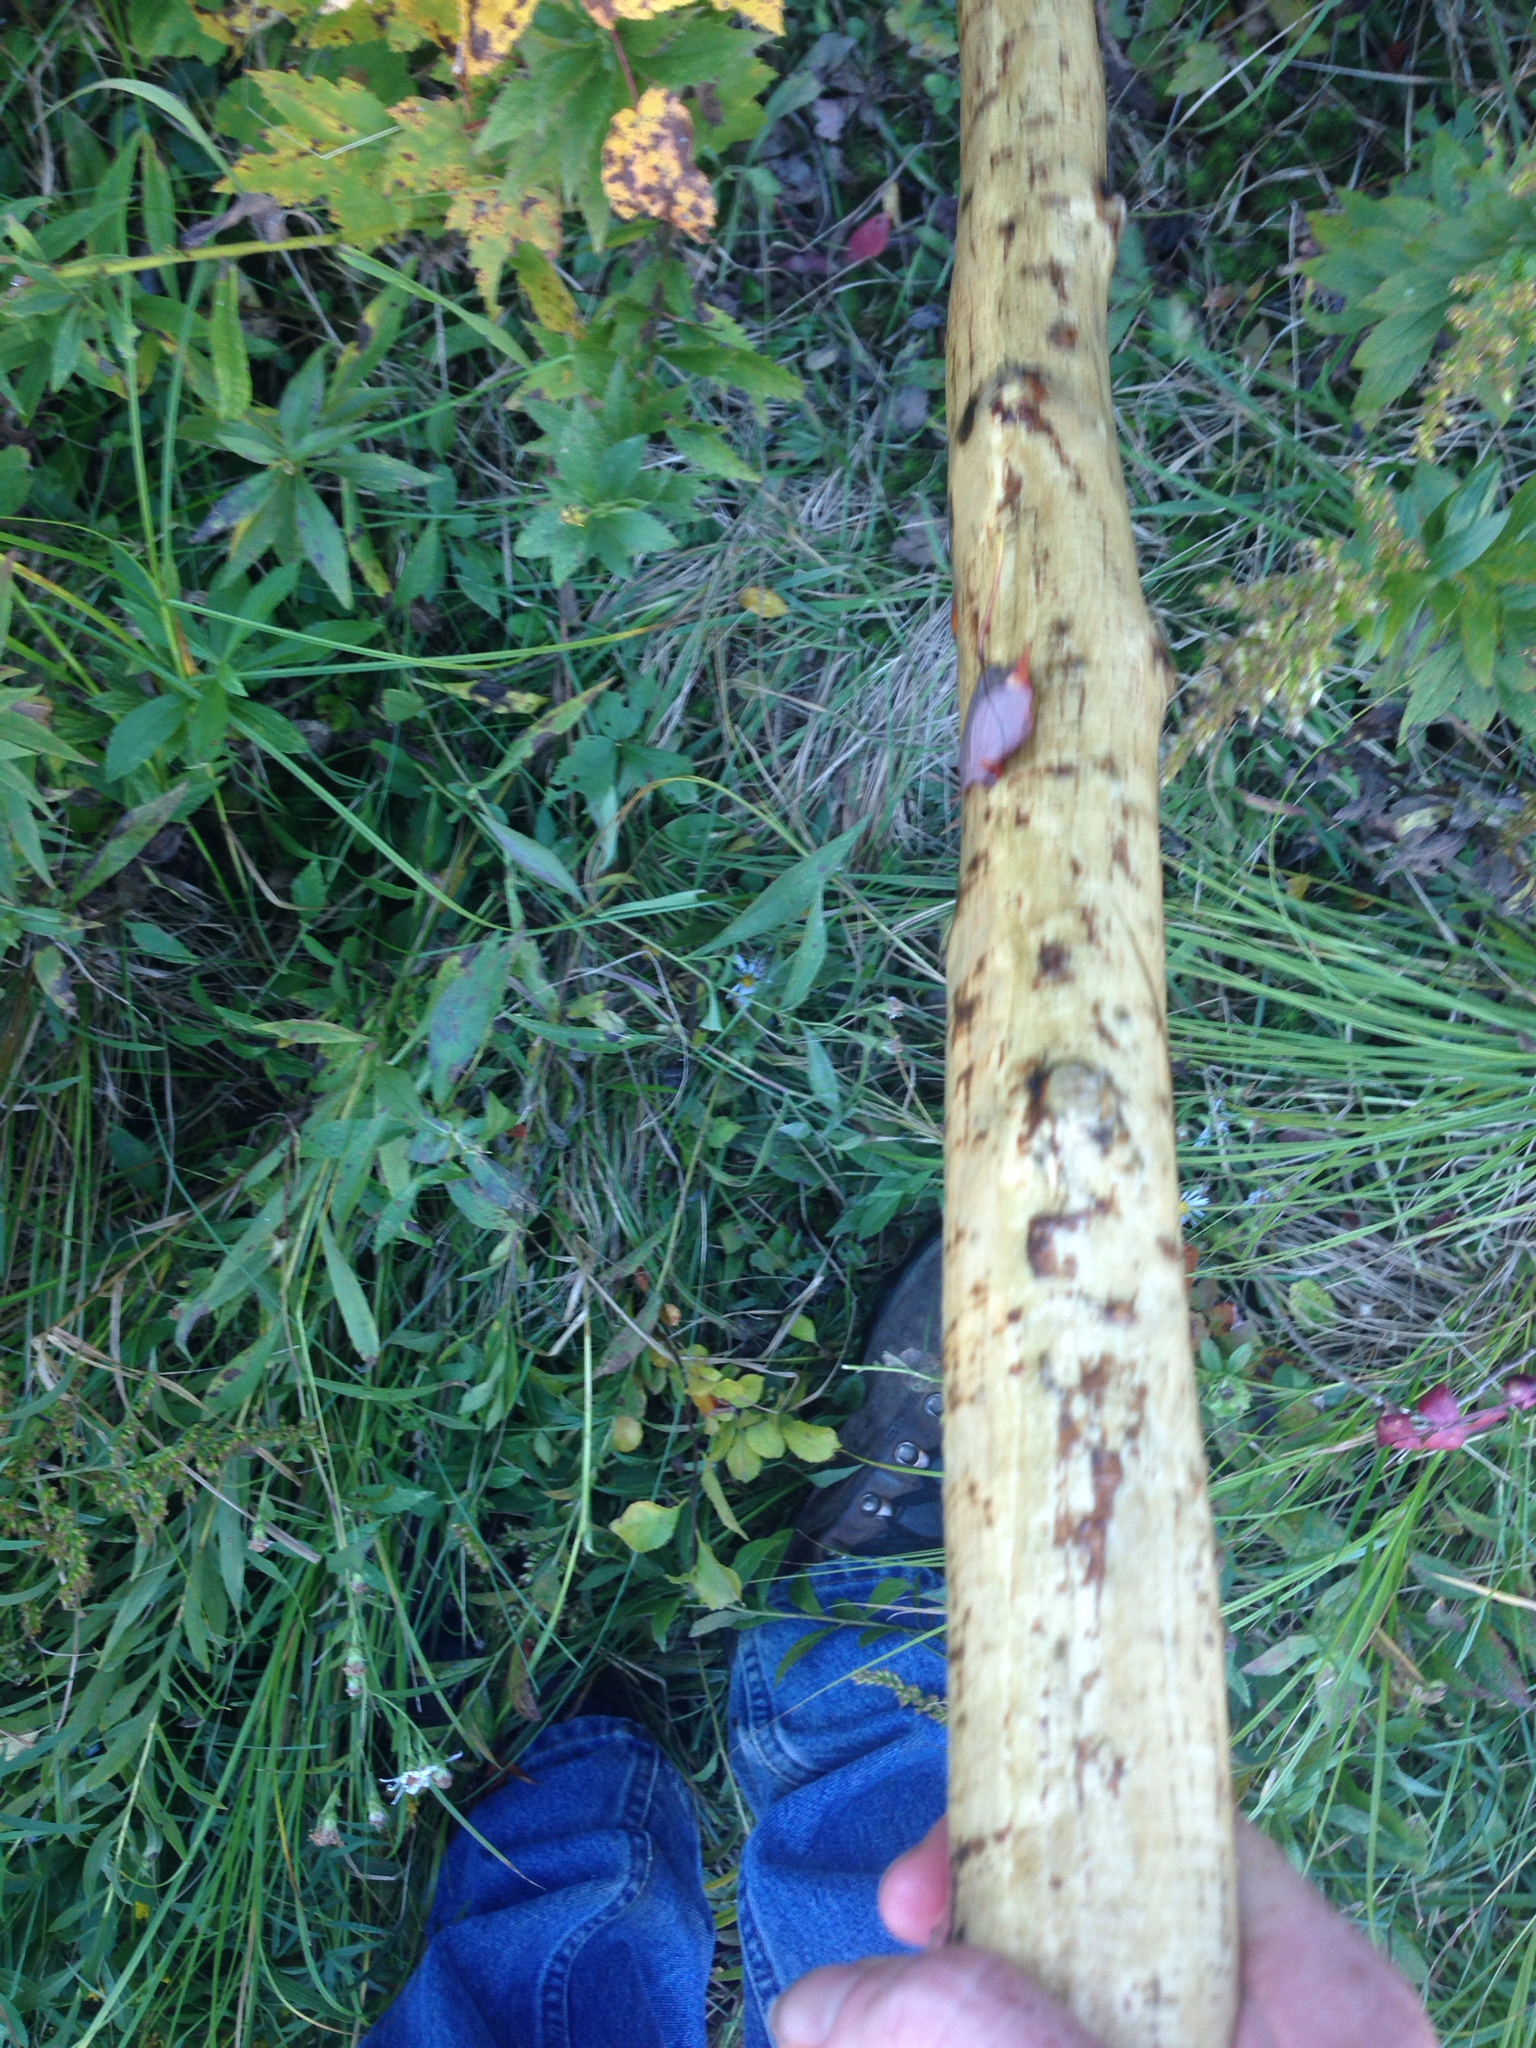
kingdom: Animalia
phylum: Chordata
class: Mammalia
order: Rodentia
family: Castoridae
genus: Castor
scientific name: Castor canadensis
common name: American beaver
